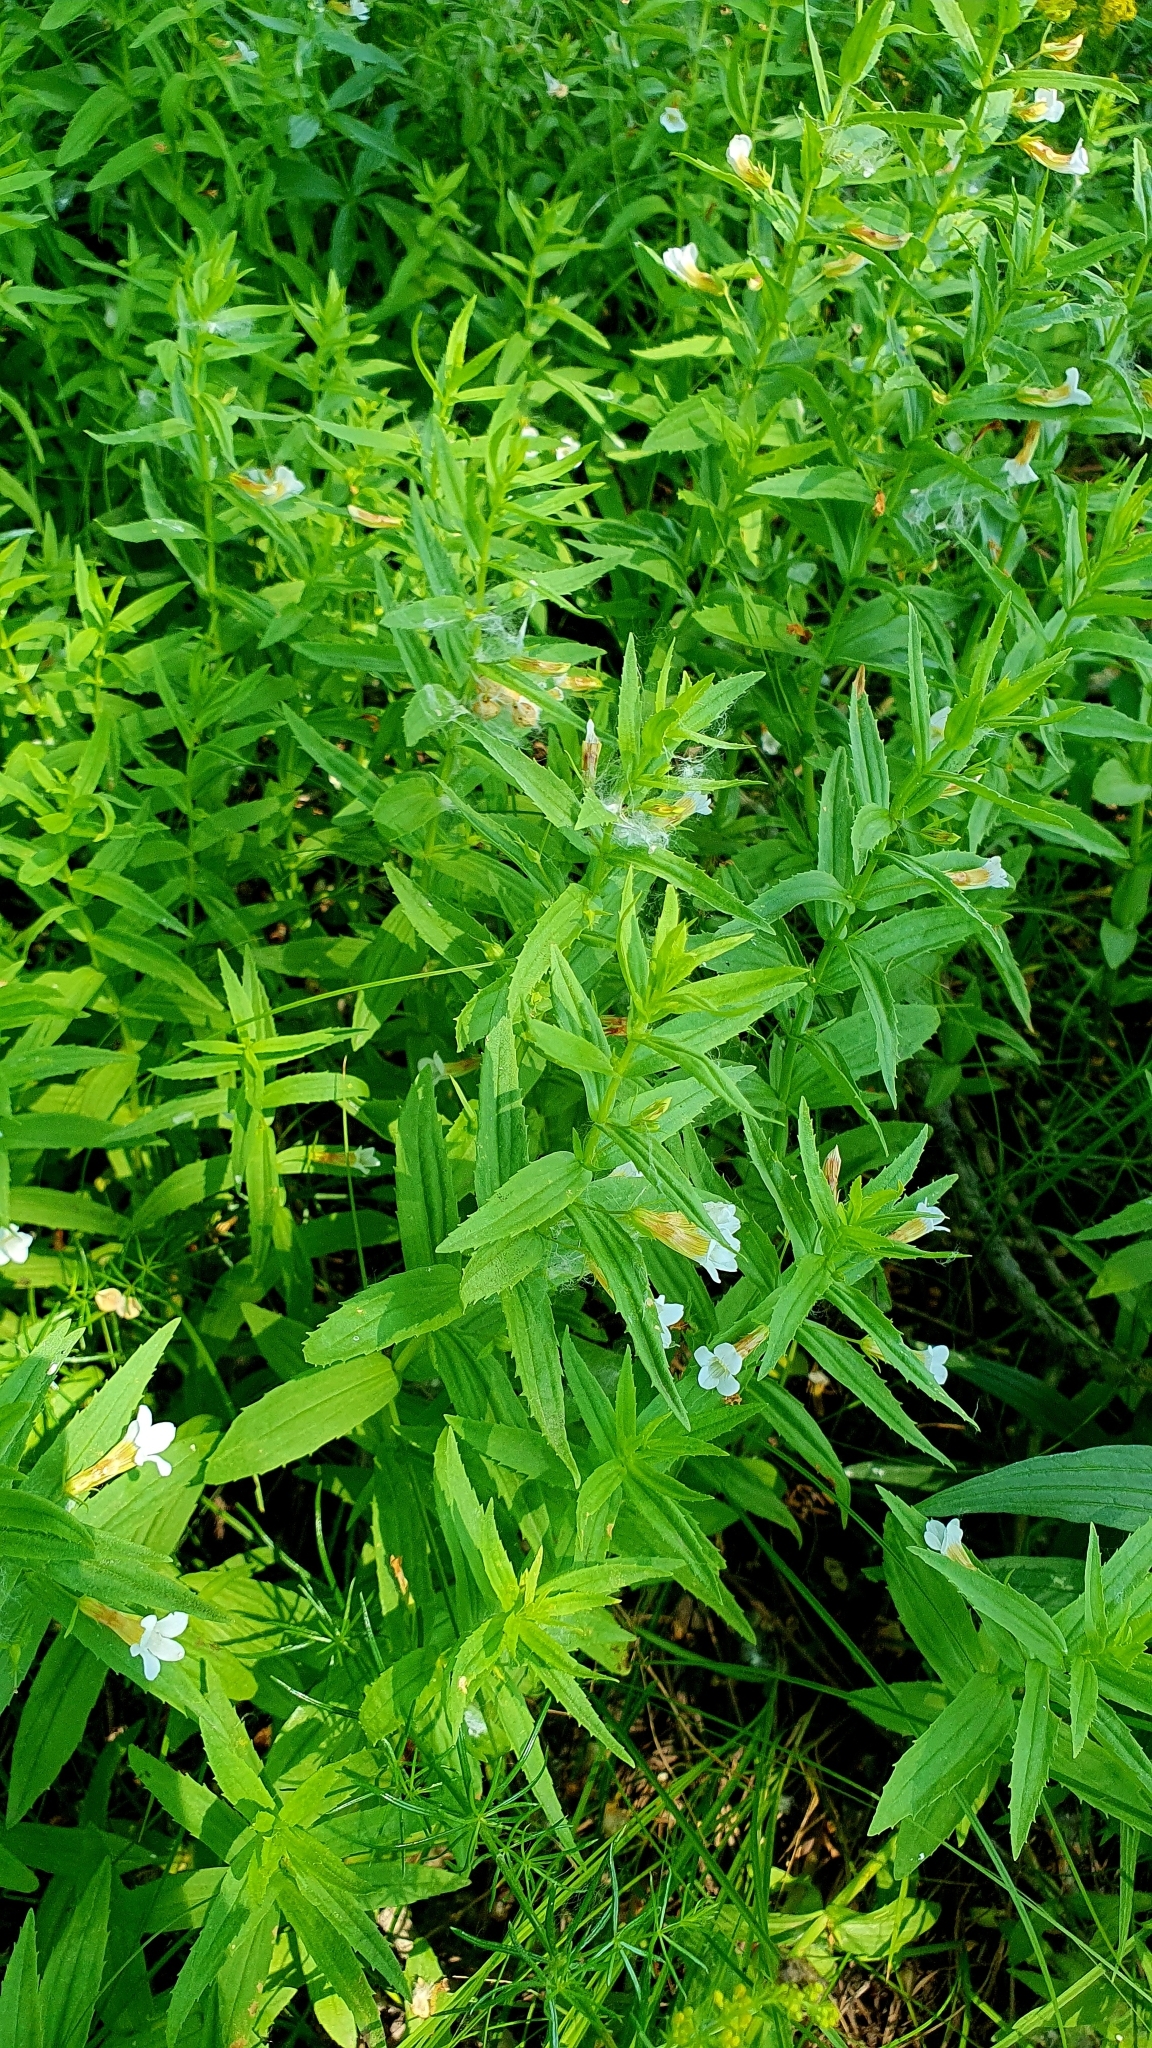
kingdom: Plantae
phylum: Tracheophyta
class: Magnoliopsida
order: Lamiales
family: Plantaginaceae
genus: Gratiola
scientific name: Gratiola officinalis
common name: Gratiola
